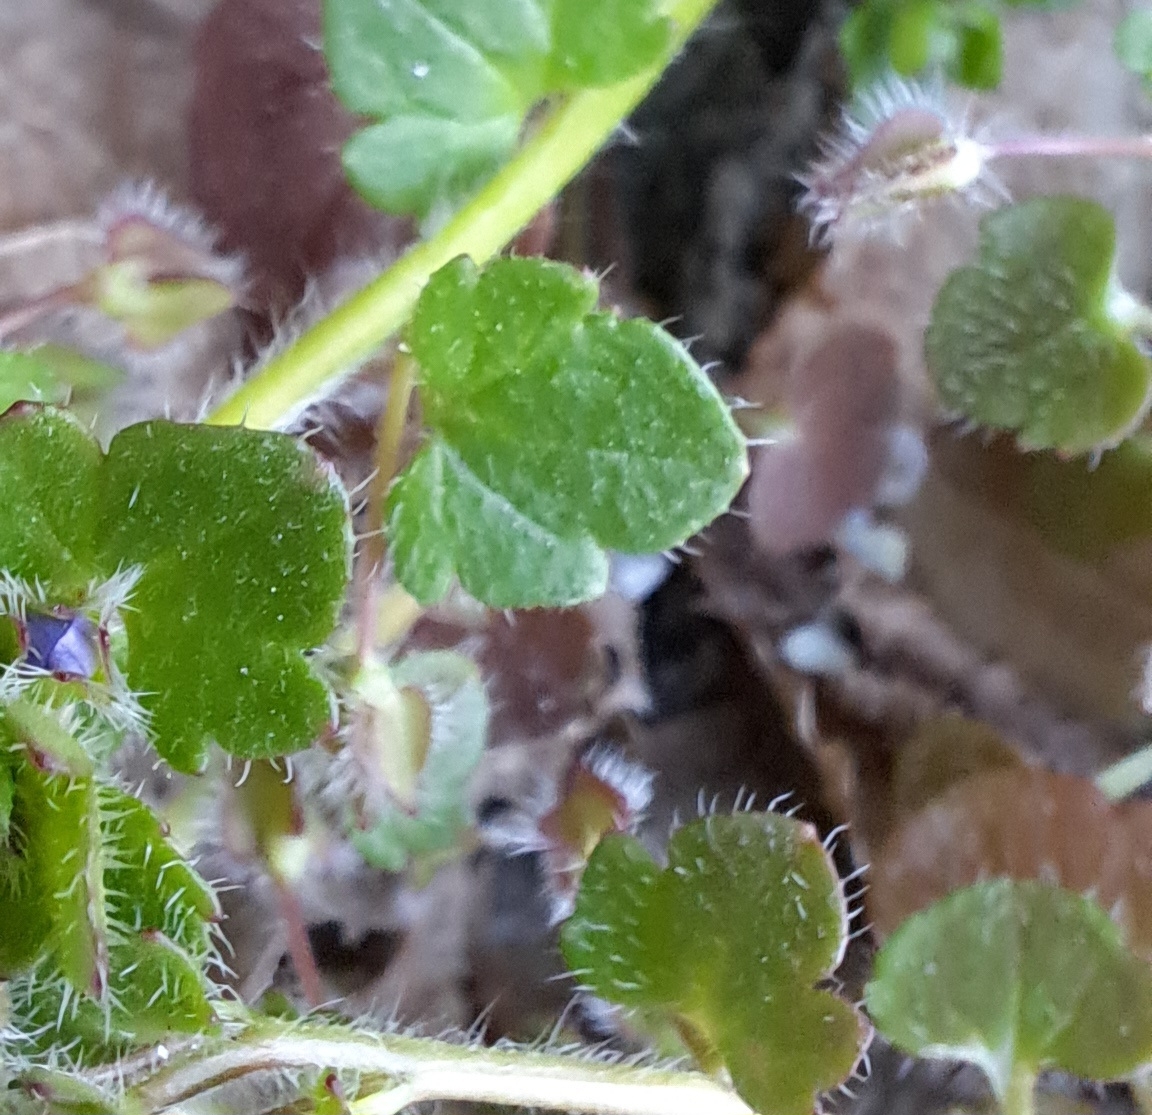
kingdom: Plantae
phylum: Tracheophyta
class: Magnoliopsida
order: Lamiales
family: Plantaginaceae
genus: Veronica
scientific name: Veronica hederifolia
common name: Ivy-leaved speedwell
